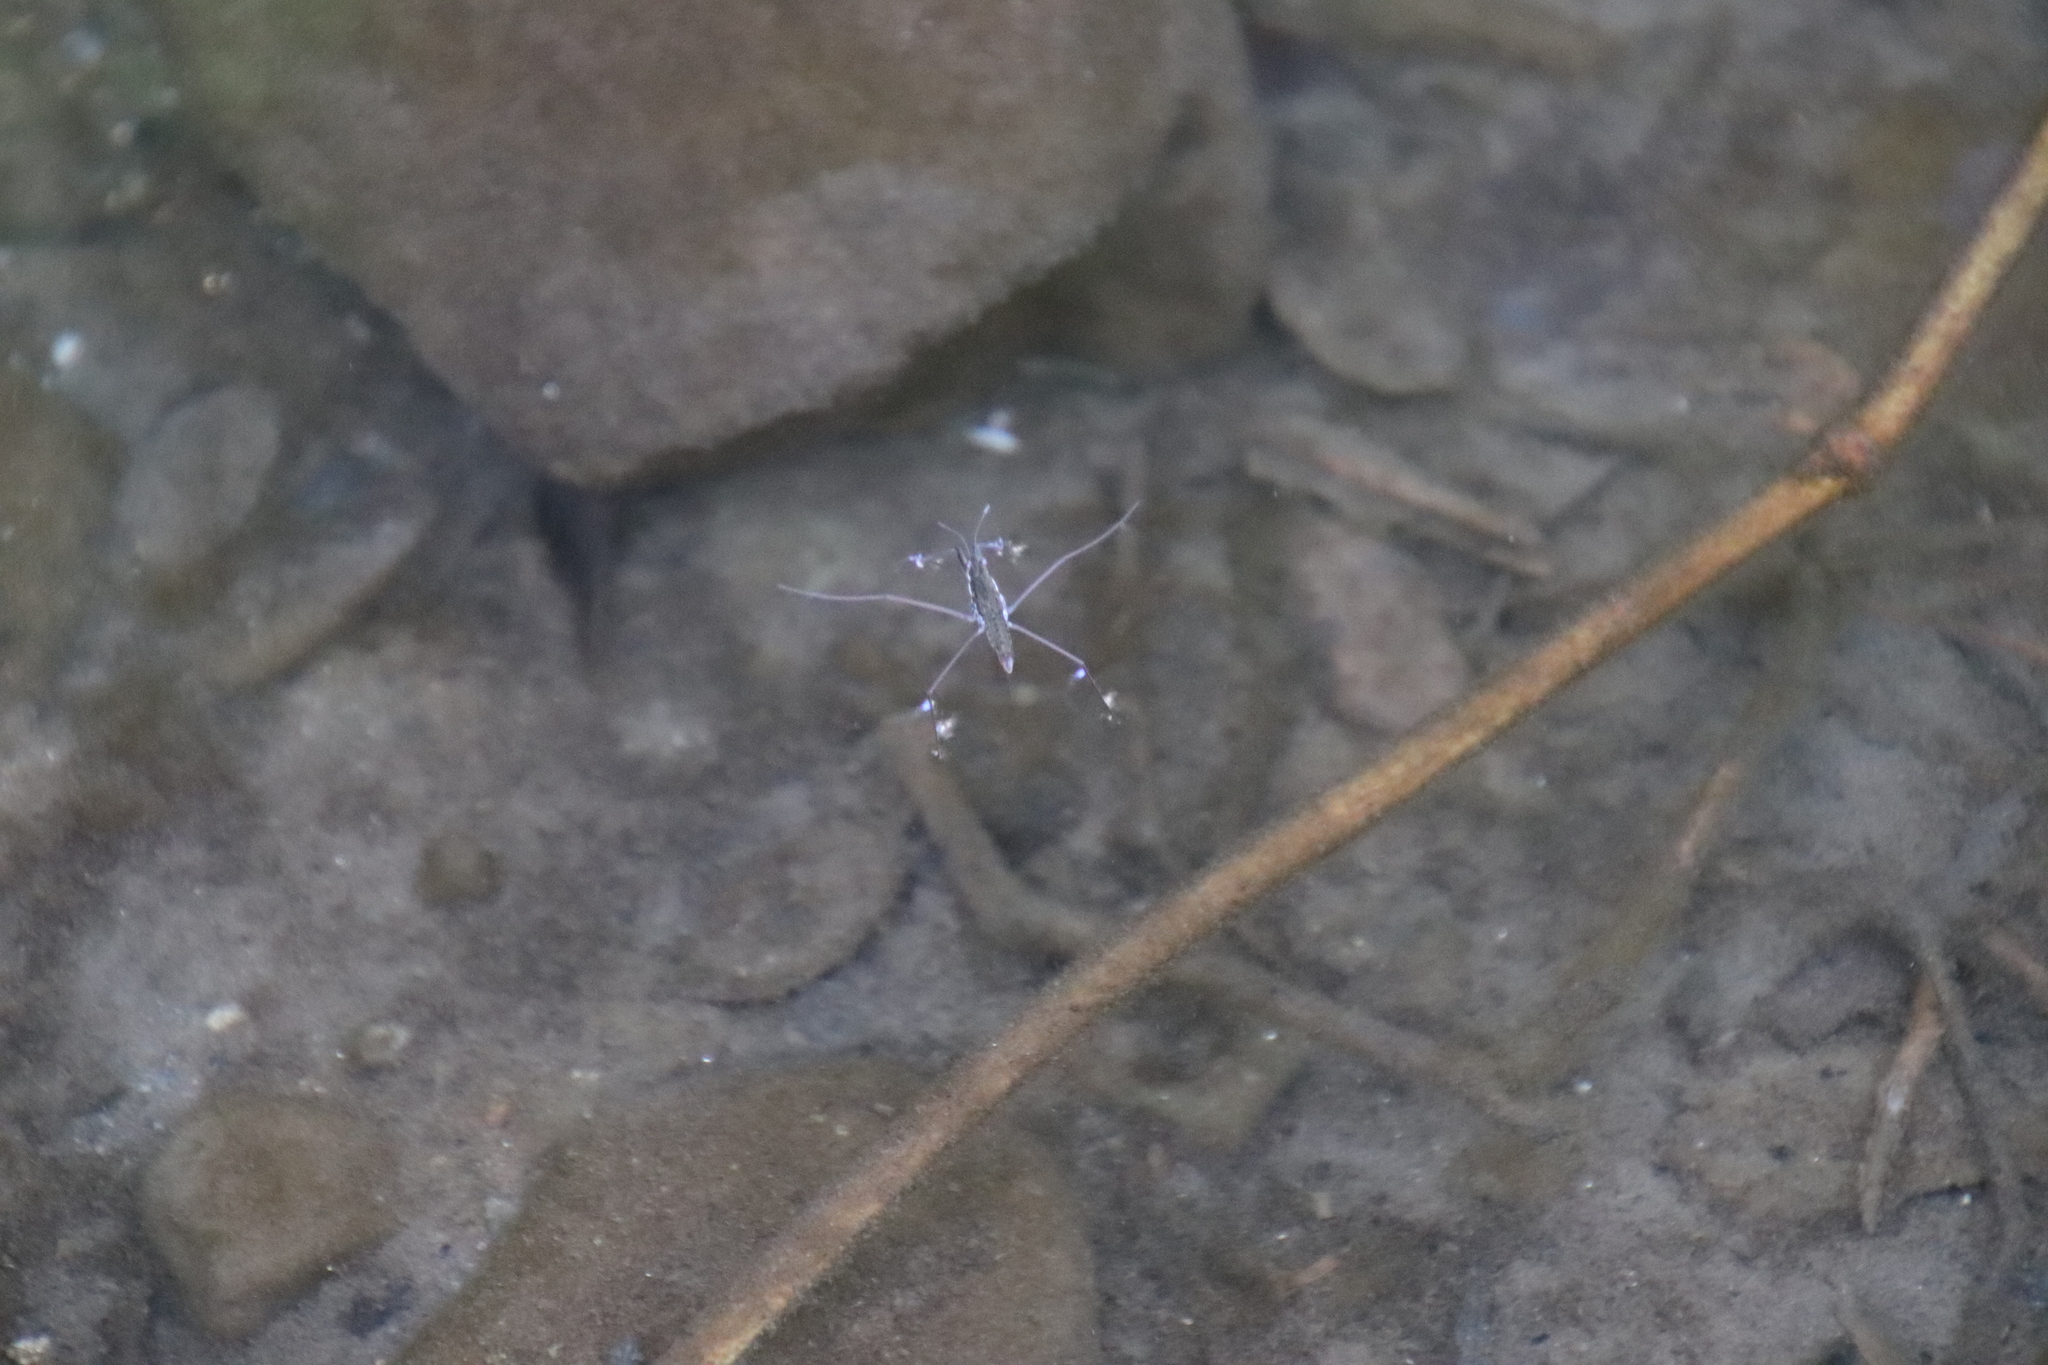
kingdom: Animalia
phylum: Arthropoda
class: Insecta
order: Hemiptera
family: Gerridae
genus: Aquarius
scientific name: Aquarius remigis
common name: Common water strider
